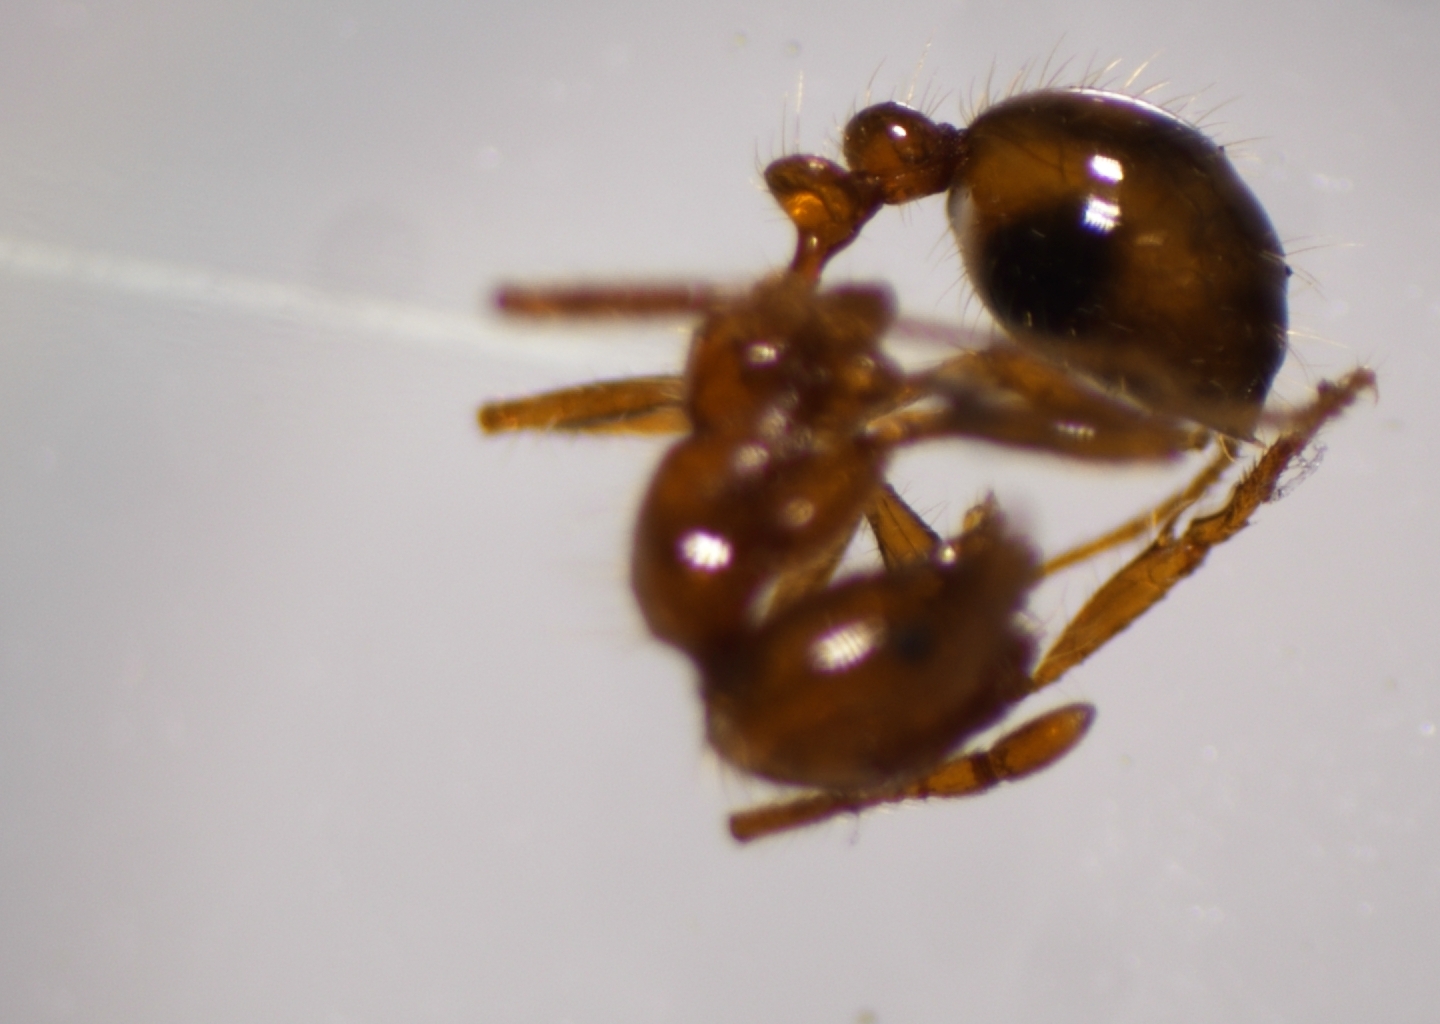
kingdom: Animalia
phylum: Arthropoda
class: Insecta
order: Hymenoptera
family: Formicidae
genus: Solenopsis
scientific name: Solenopsis geminata
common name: Tropical fire ant
